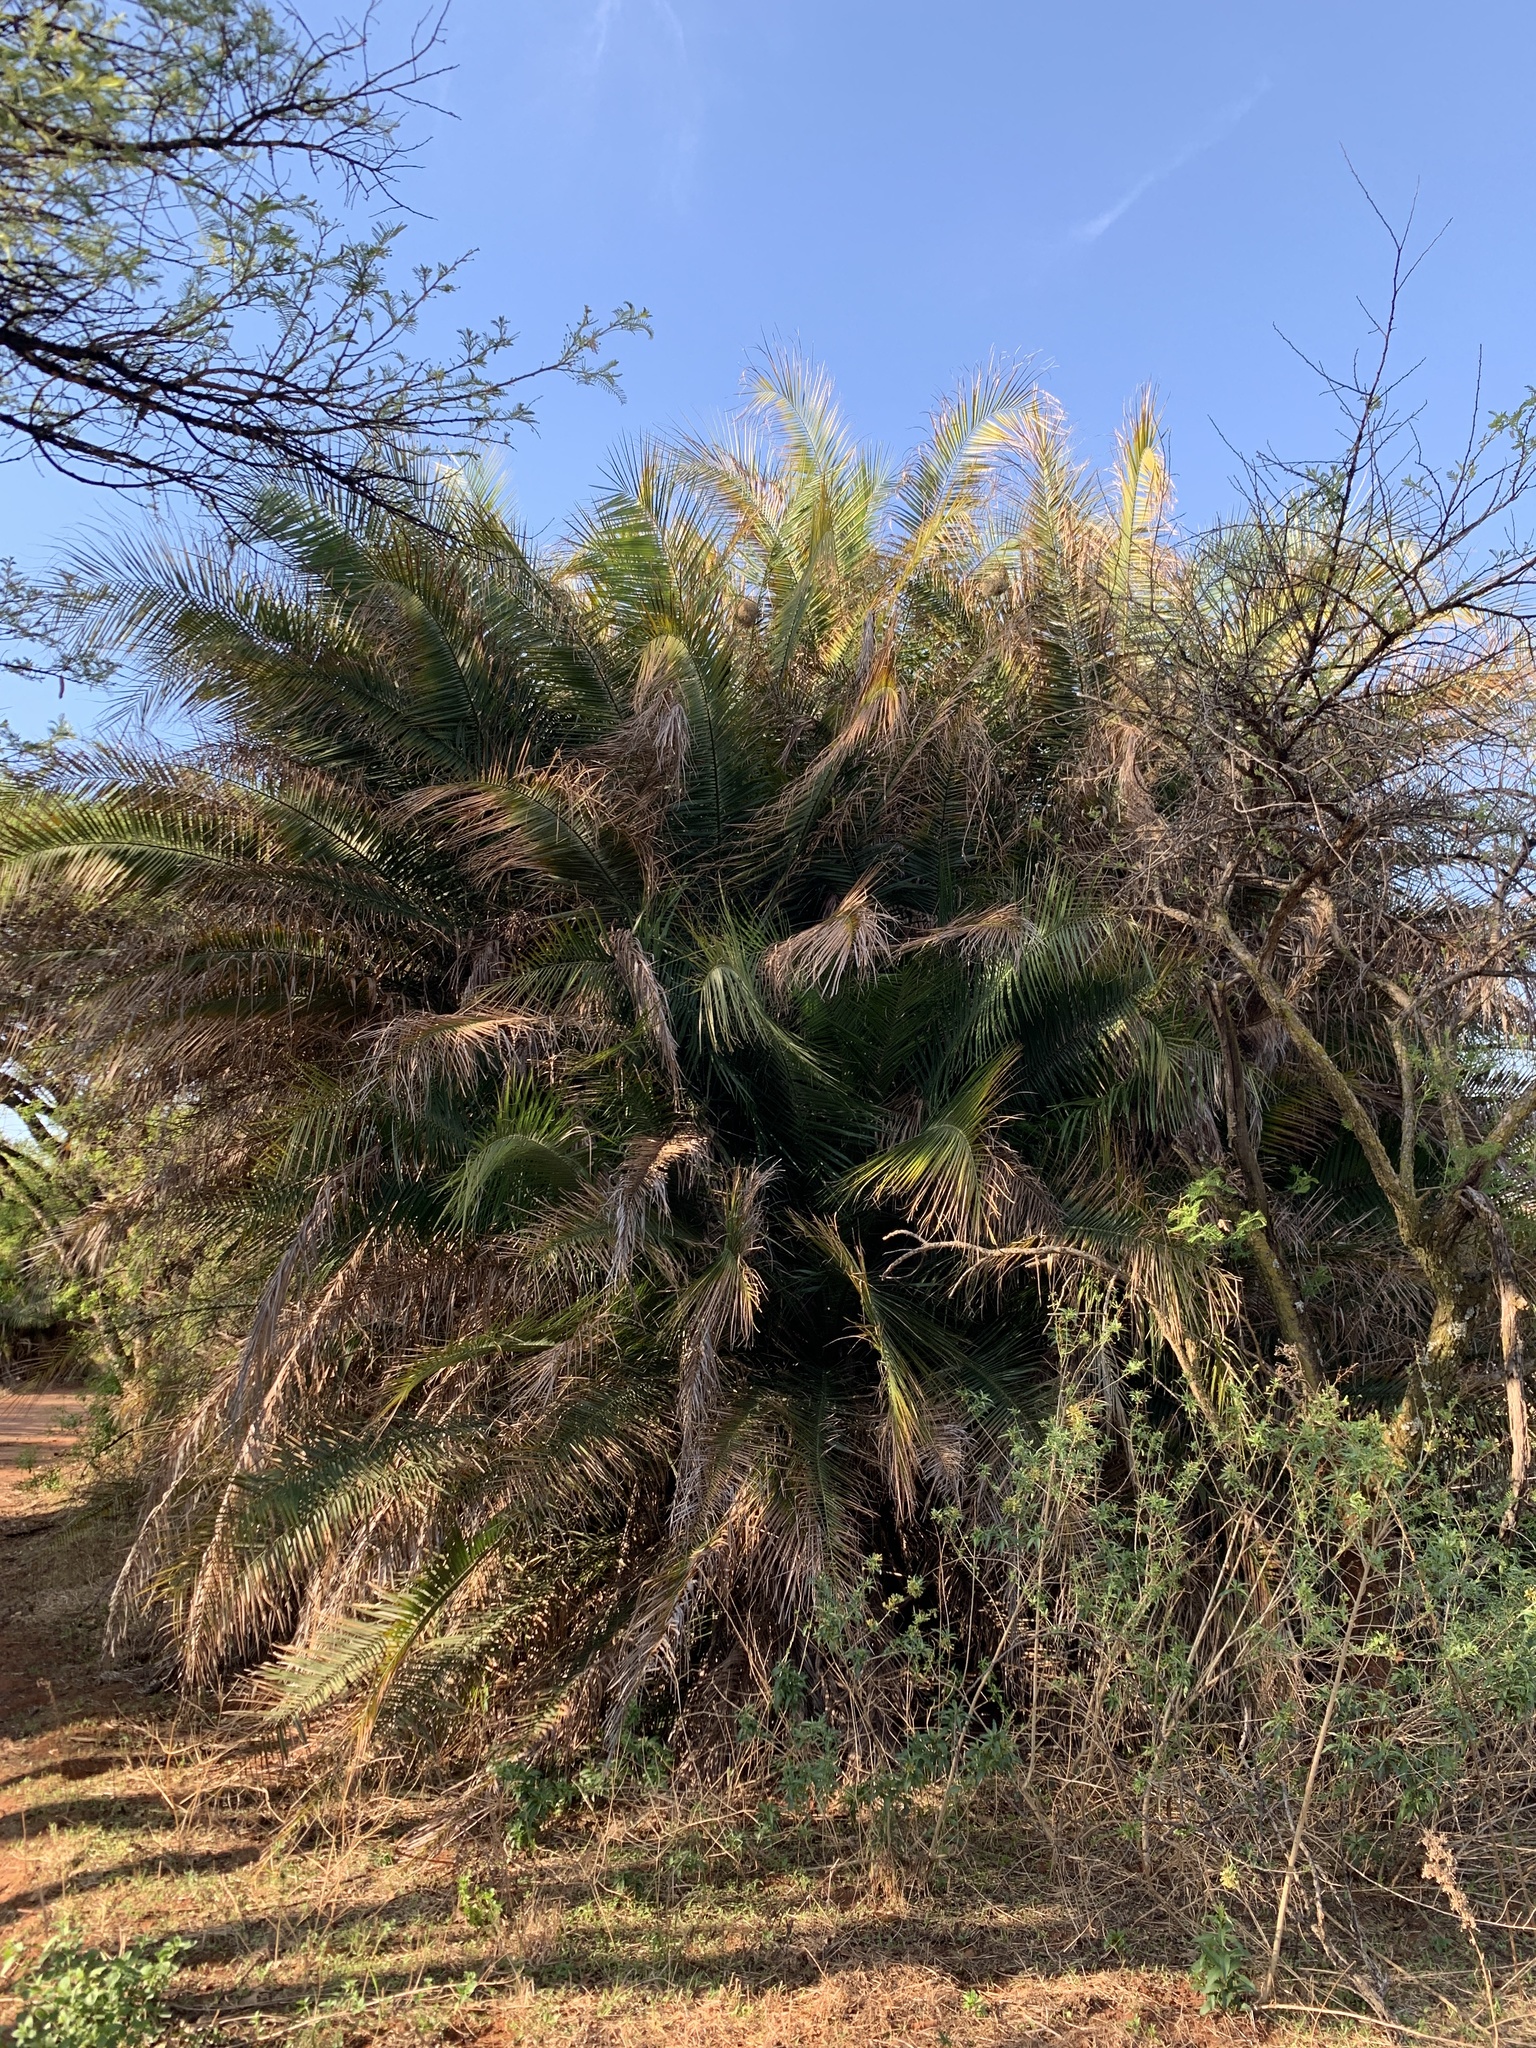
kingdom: Plantae
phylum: Tracheophyta
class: Liliopsida
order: Arecales
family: Arecaceae
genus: Phoenix
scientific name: Phoenix reclinata
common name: Senegal date palm
